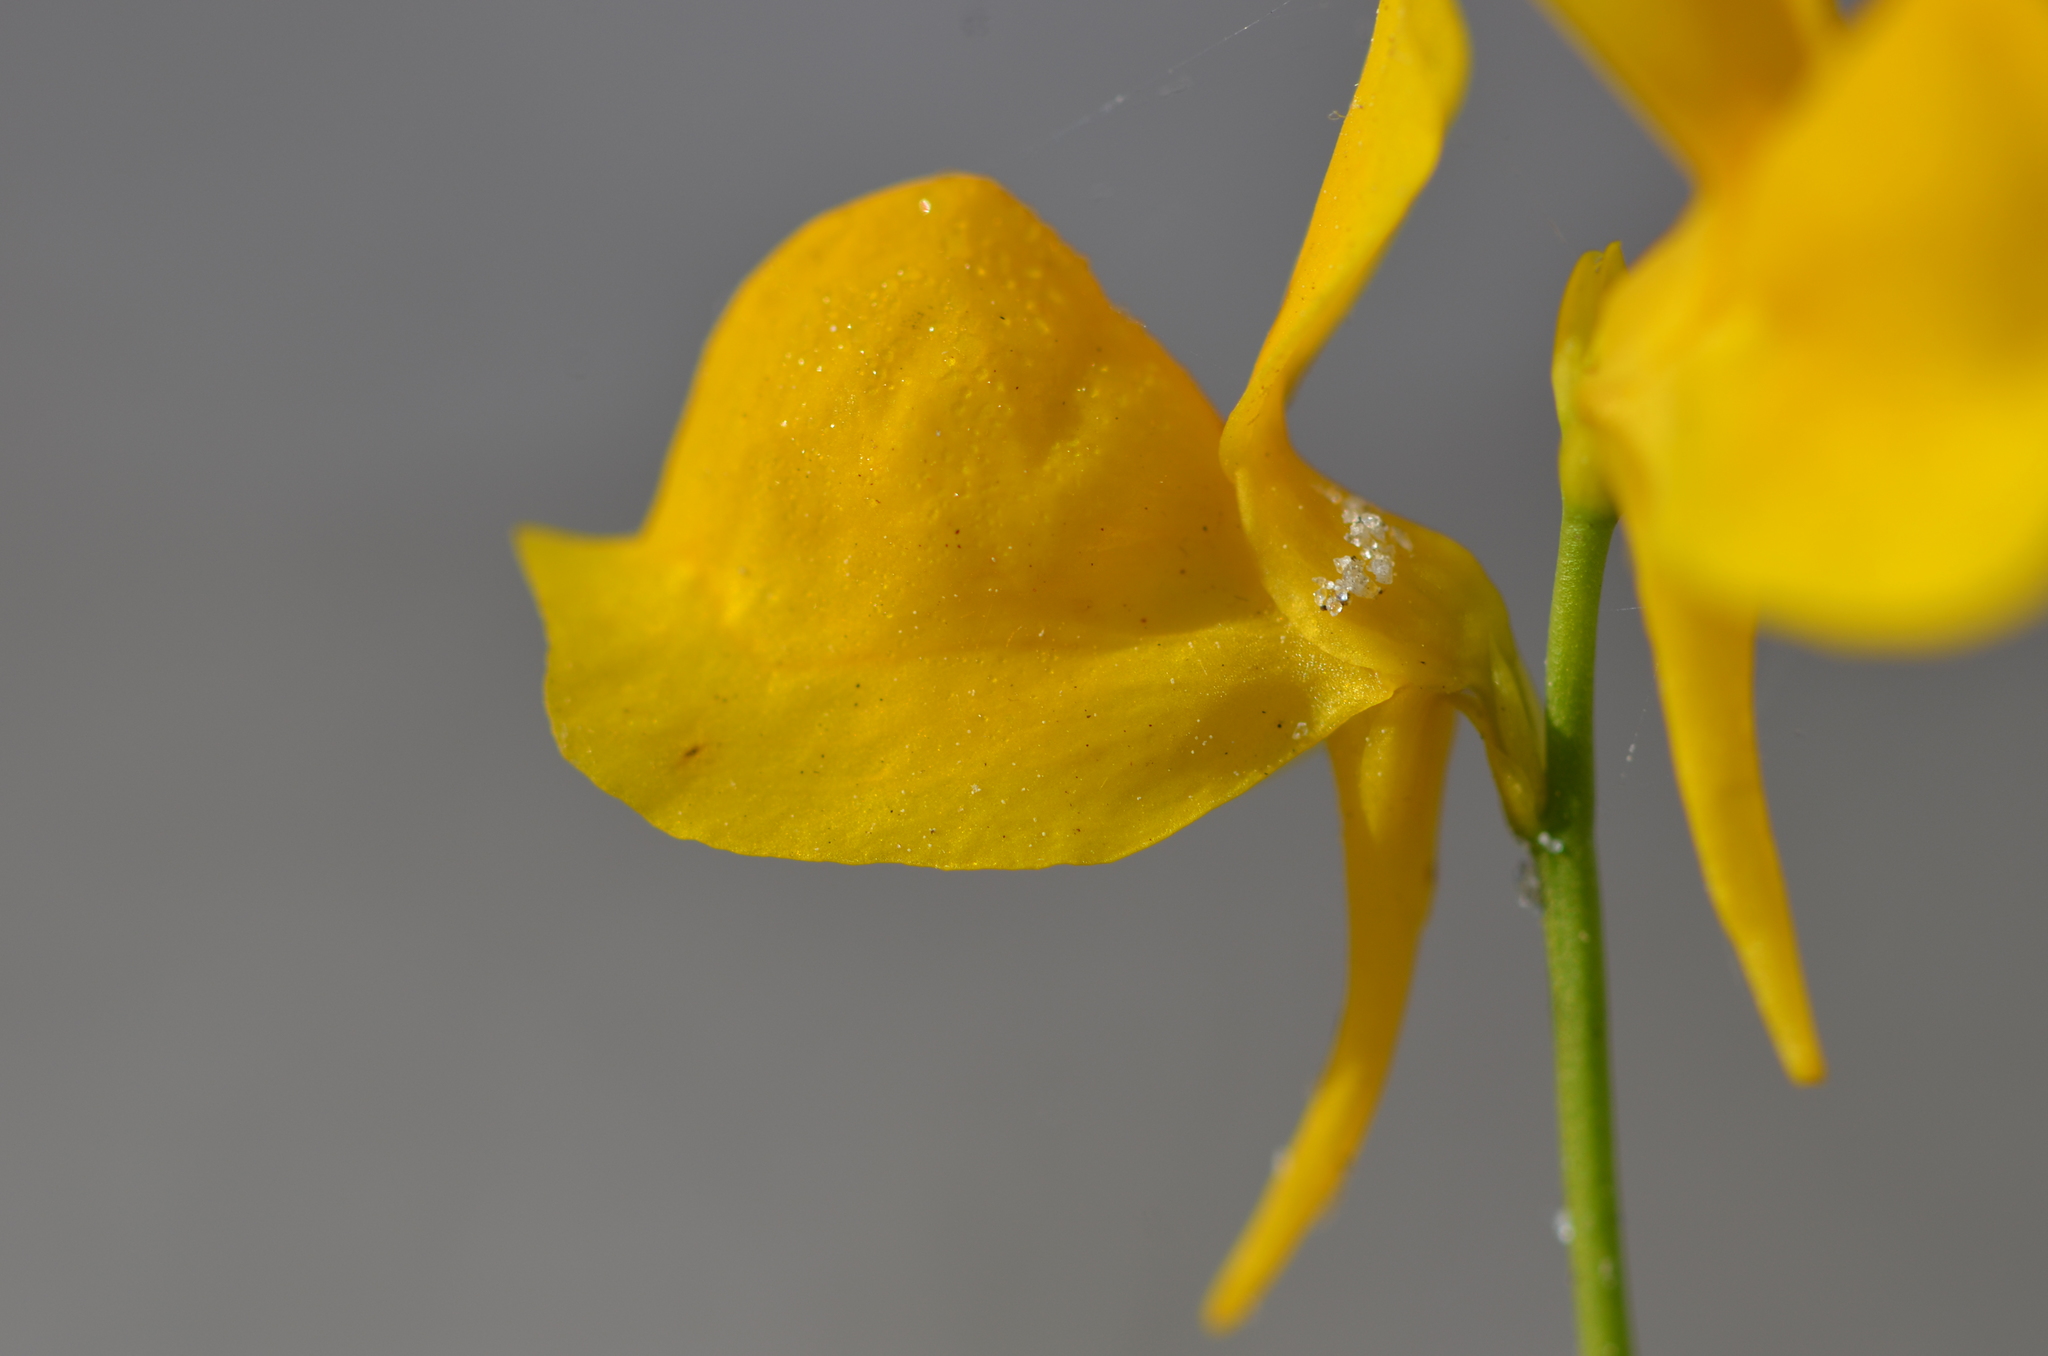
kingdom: Plantae
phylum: Tracheophyta
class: Magnoliopsida
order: Lamiales
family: Lentibulariaceae
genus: Utricularia
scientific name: Utricularia cornuta
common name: Horned bladderwort
